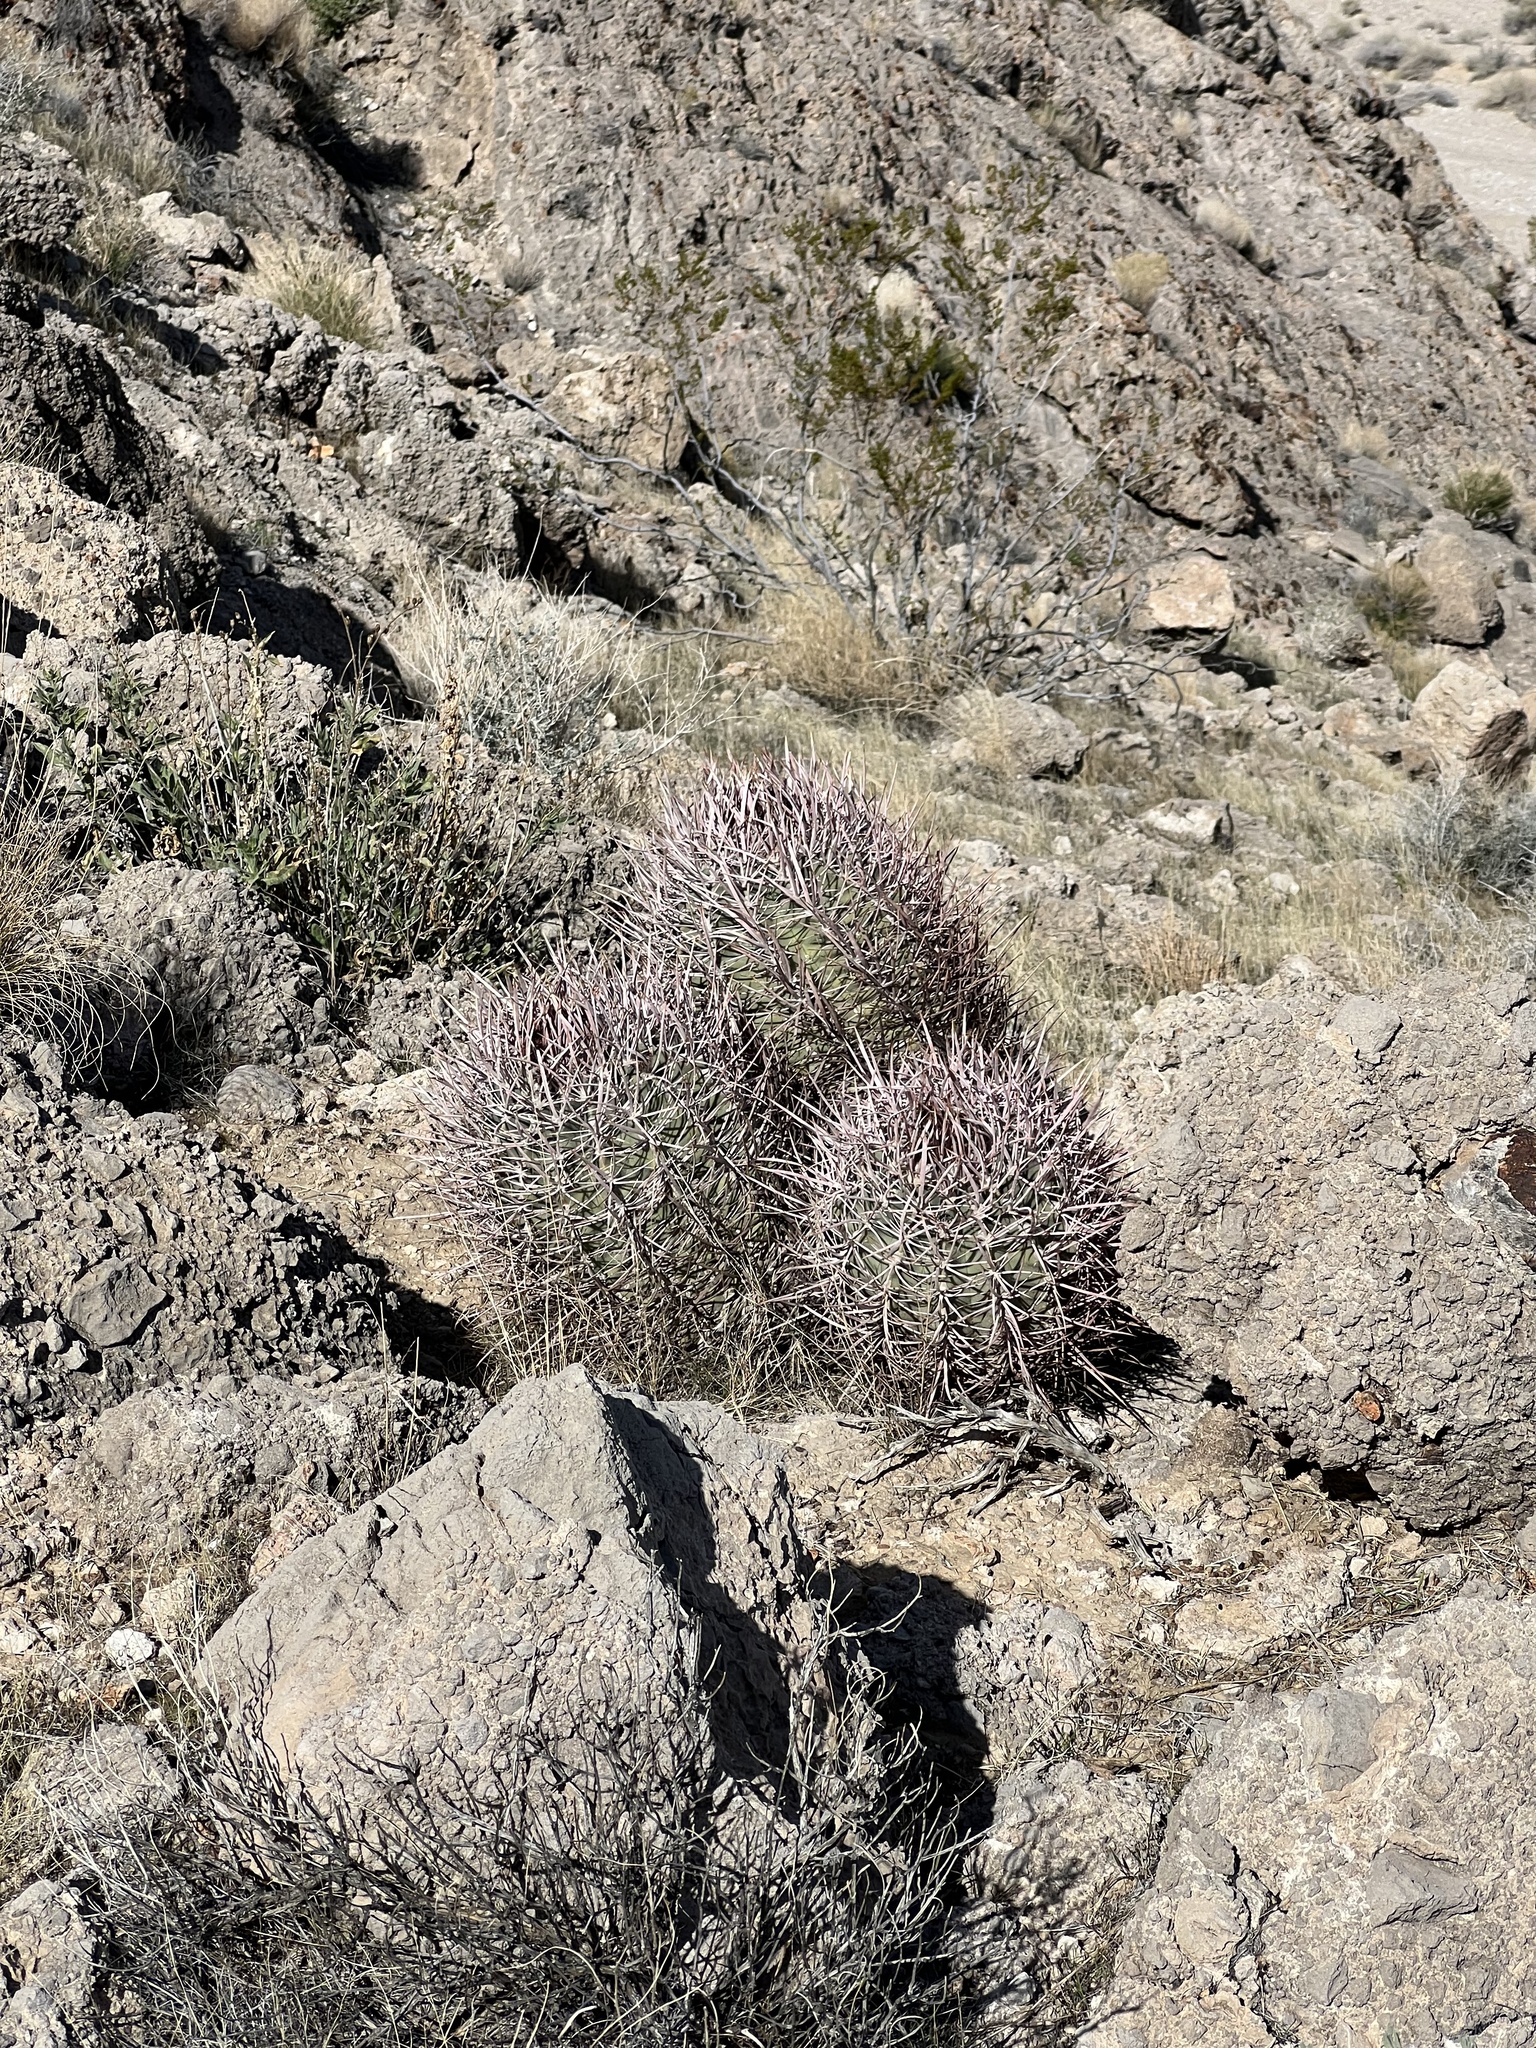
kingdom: Plantae
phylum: Tracheophyta
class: Magnoliopsida
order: Caryophyllales
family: Cactaceae
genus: Echinocactus
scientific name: Echinocactus polycephalus
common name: Cottontop cactus
